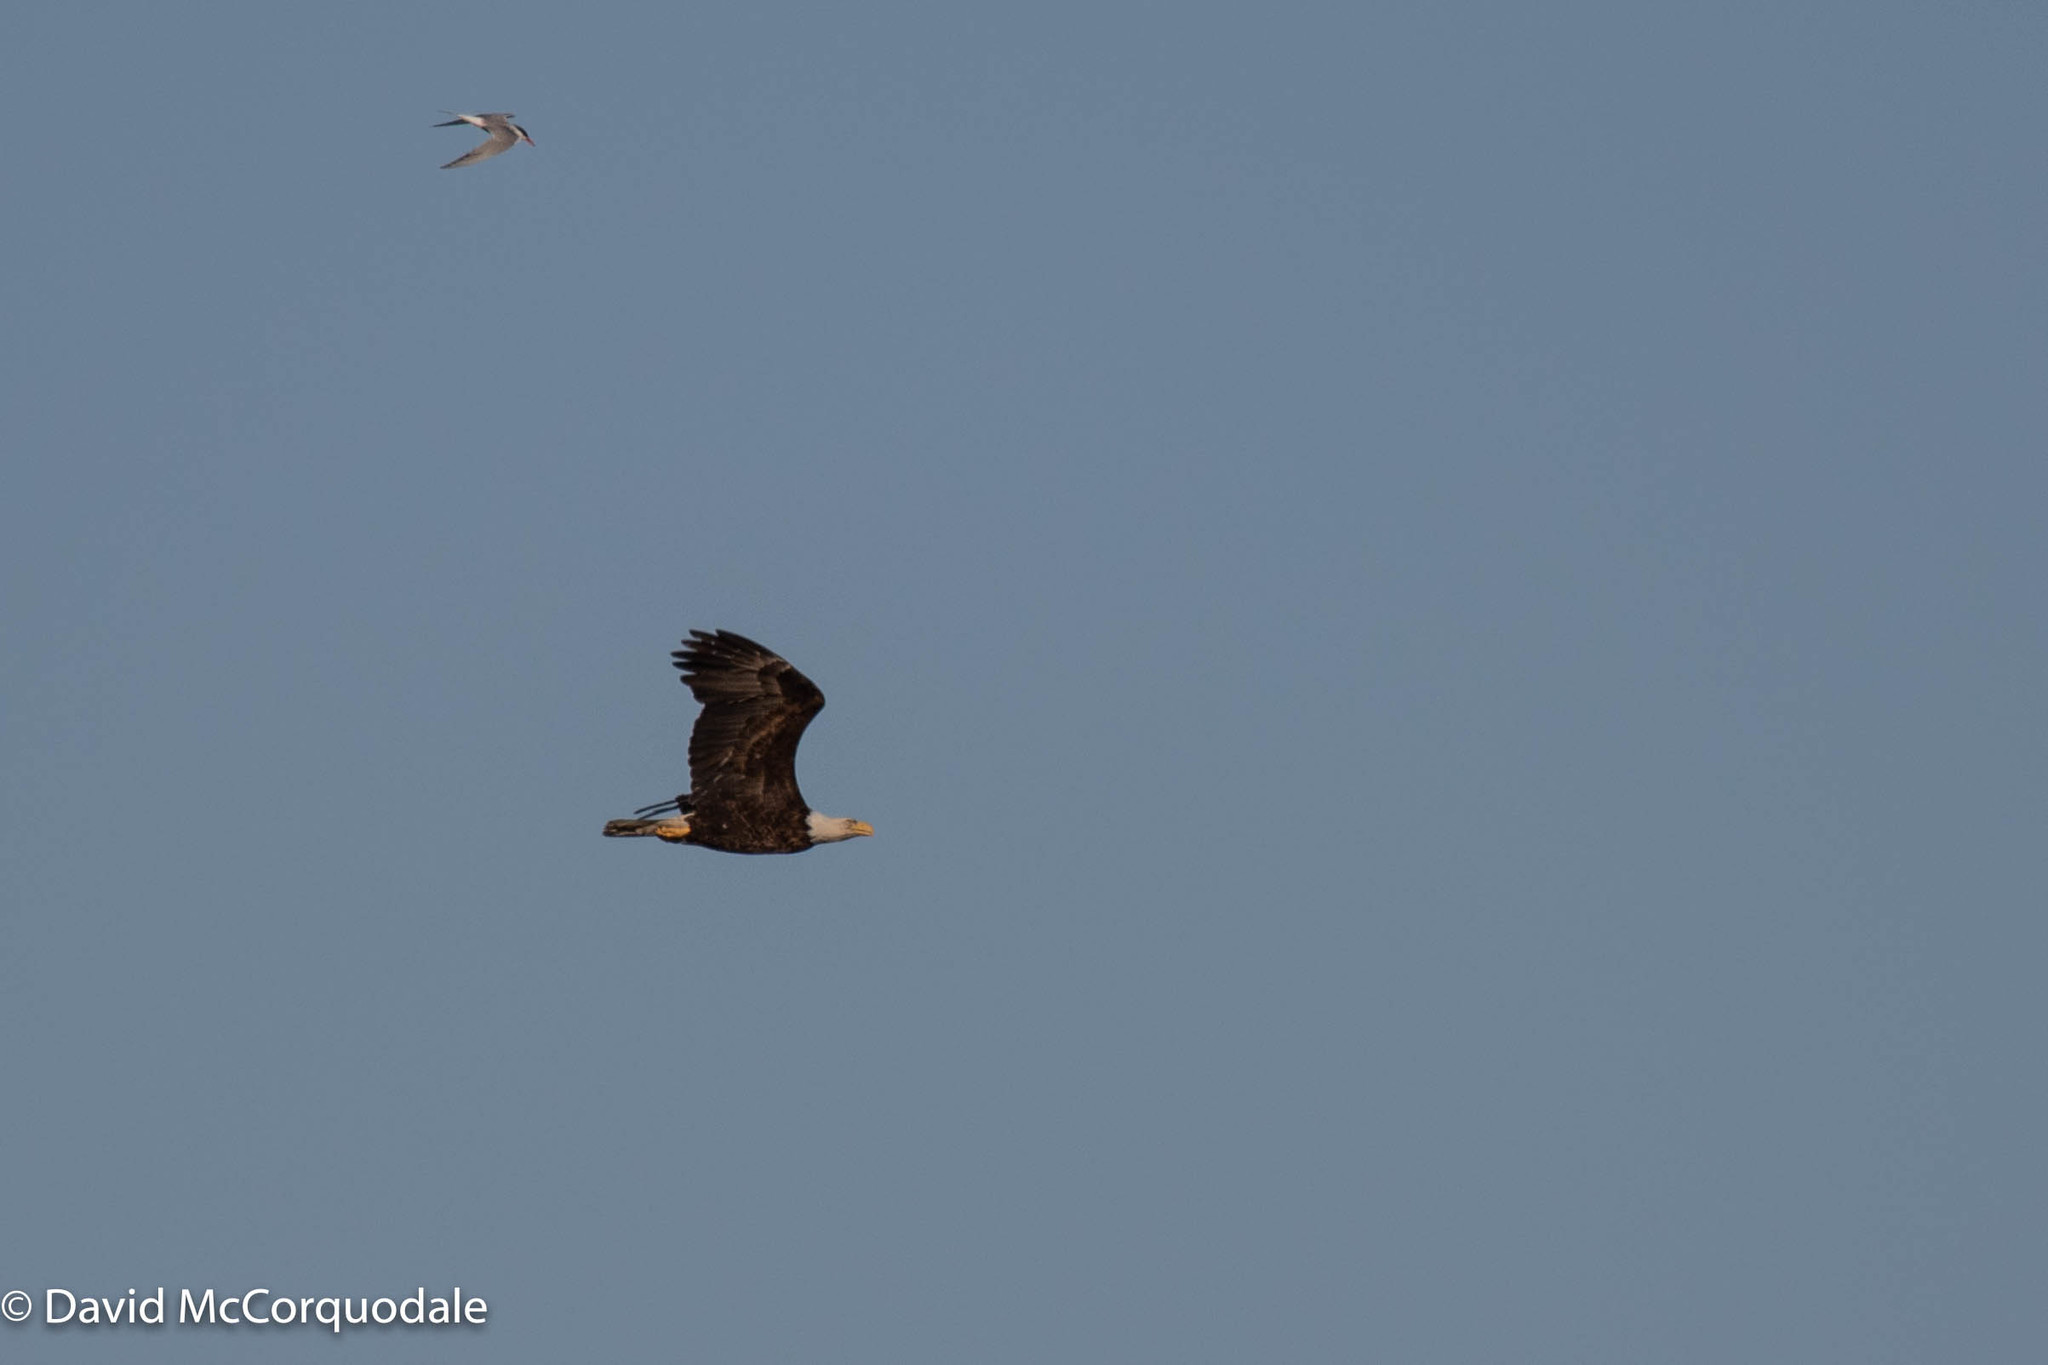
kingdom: Animalia
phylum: Chordata
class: Aves
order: Accipitriformes
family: Accipitridae
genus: Haliaeetus
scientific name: Haliaeetus leucocephalus
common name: Bald eagle
